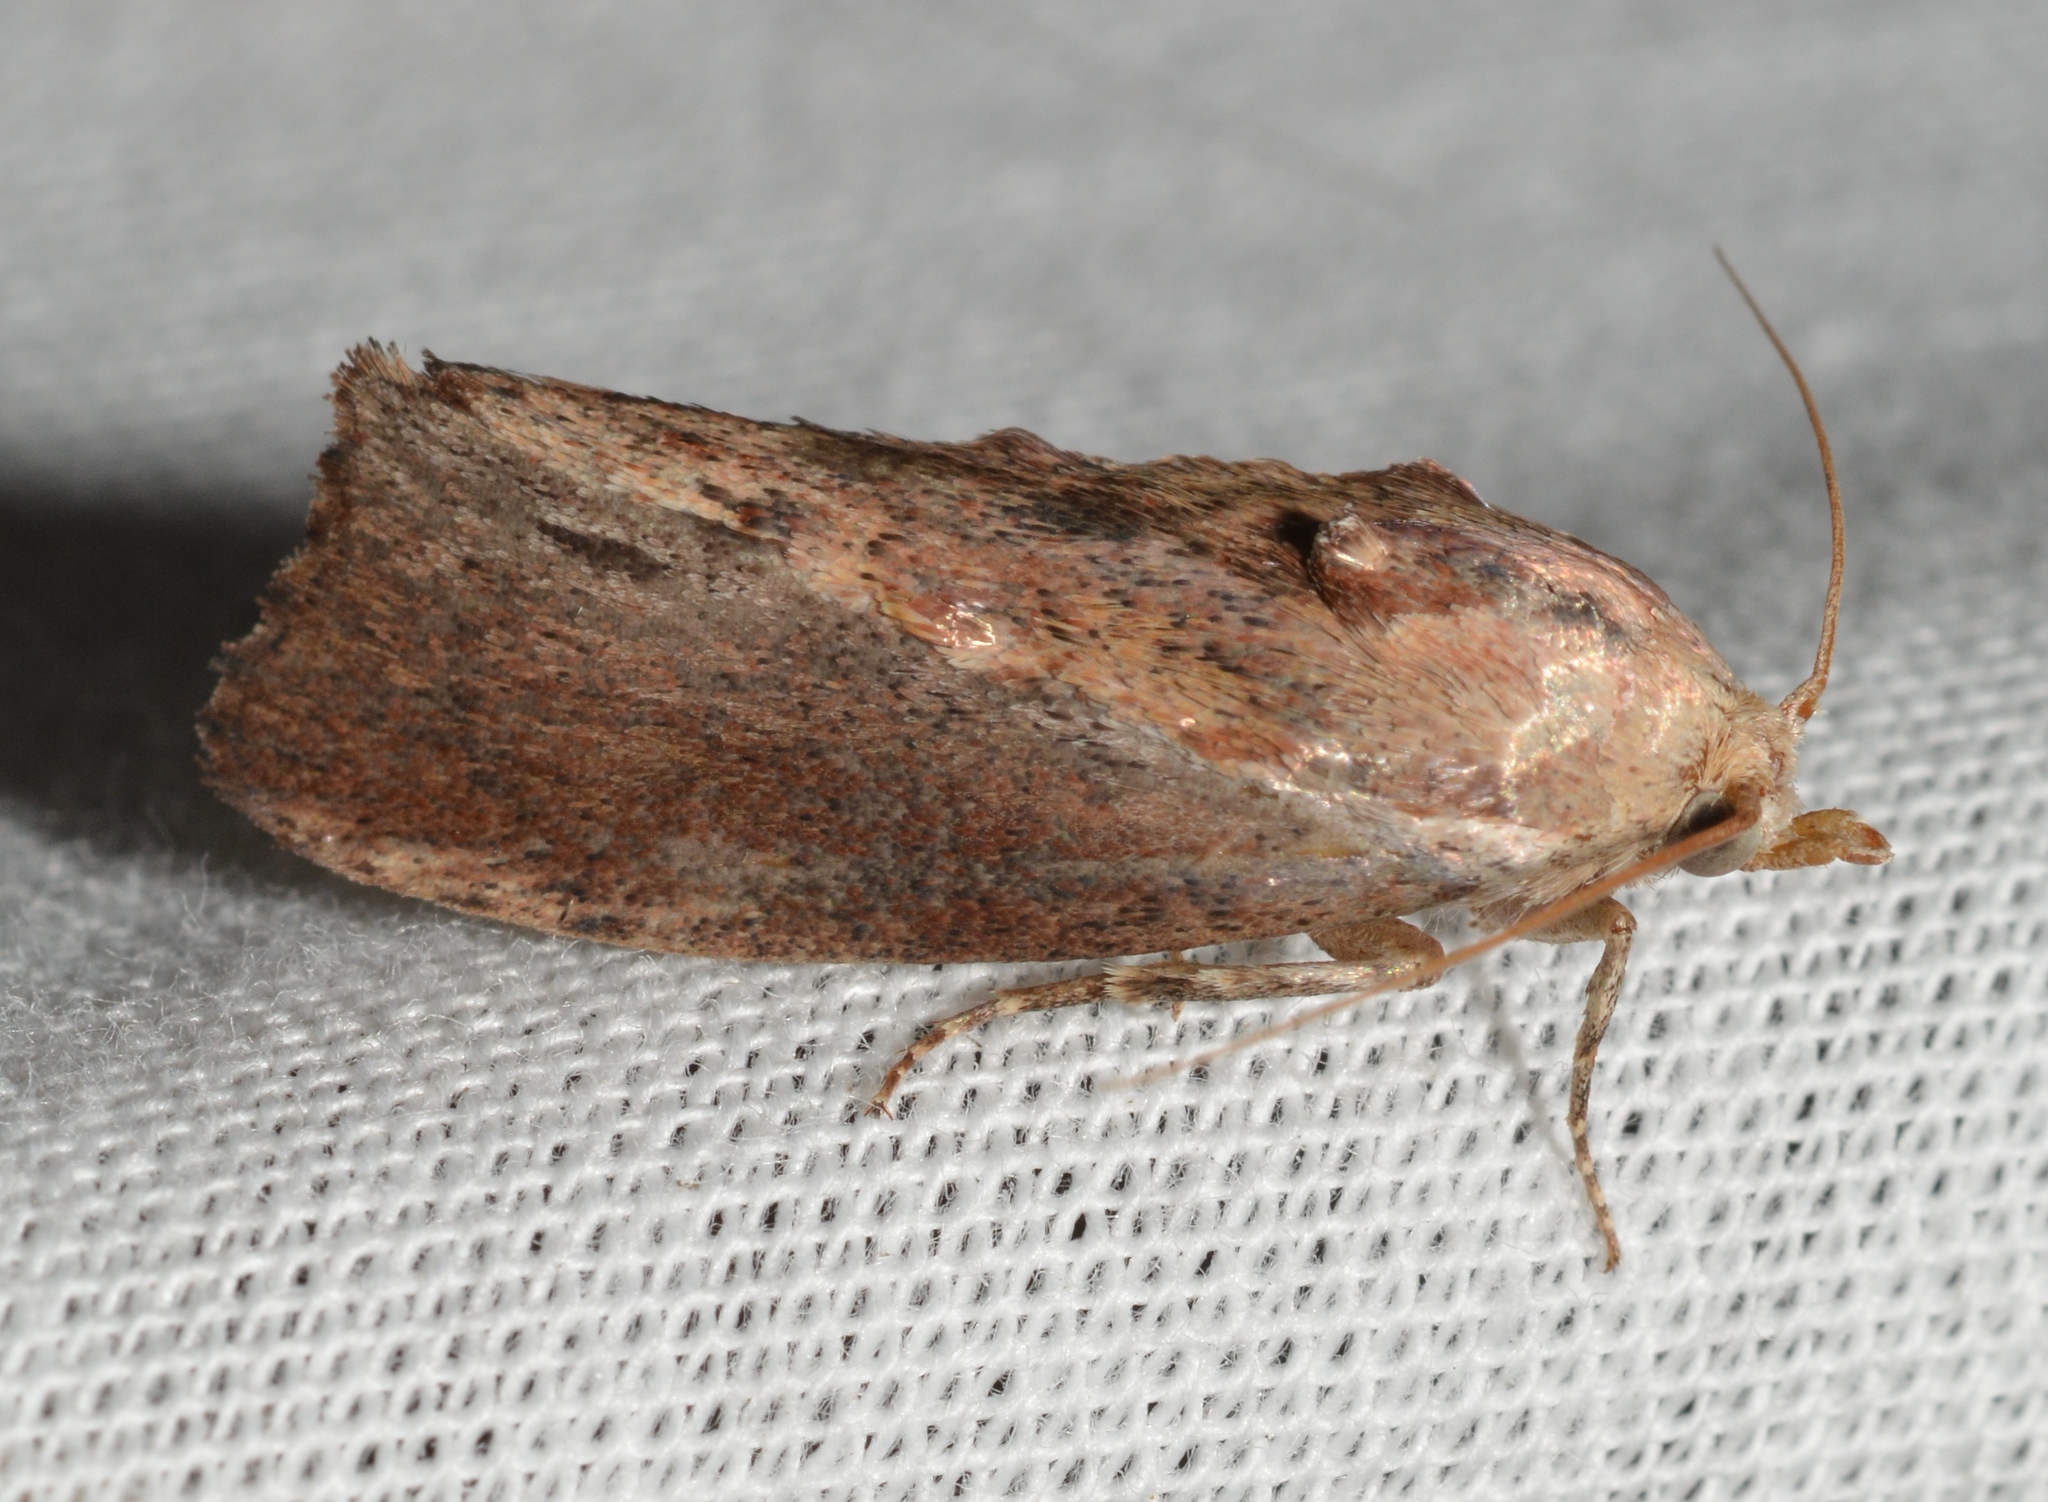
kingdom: Animalia
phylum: Arthropoda
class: Insecta
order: Lepidoptera
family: Pyralidae
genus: Galleria
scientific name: Galleria mellonella
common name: Greater wax moth
